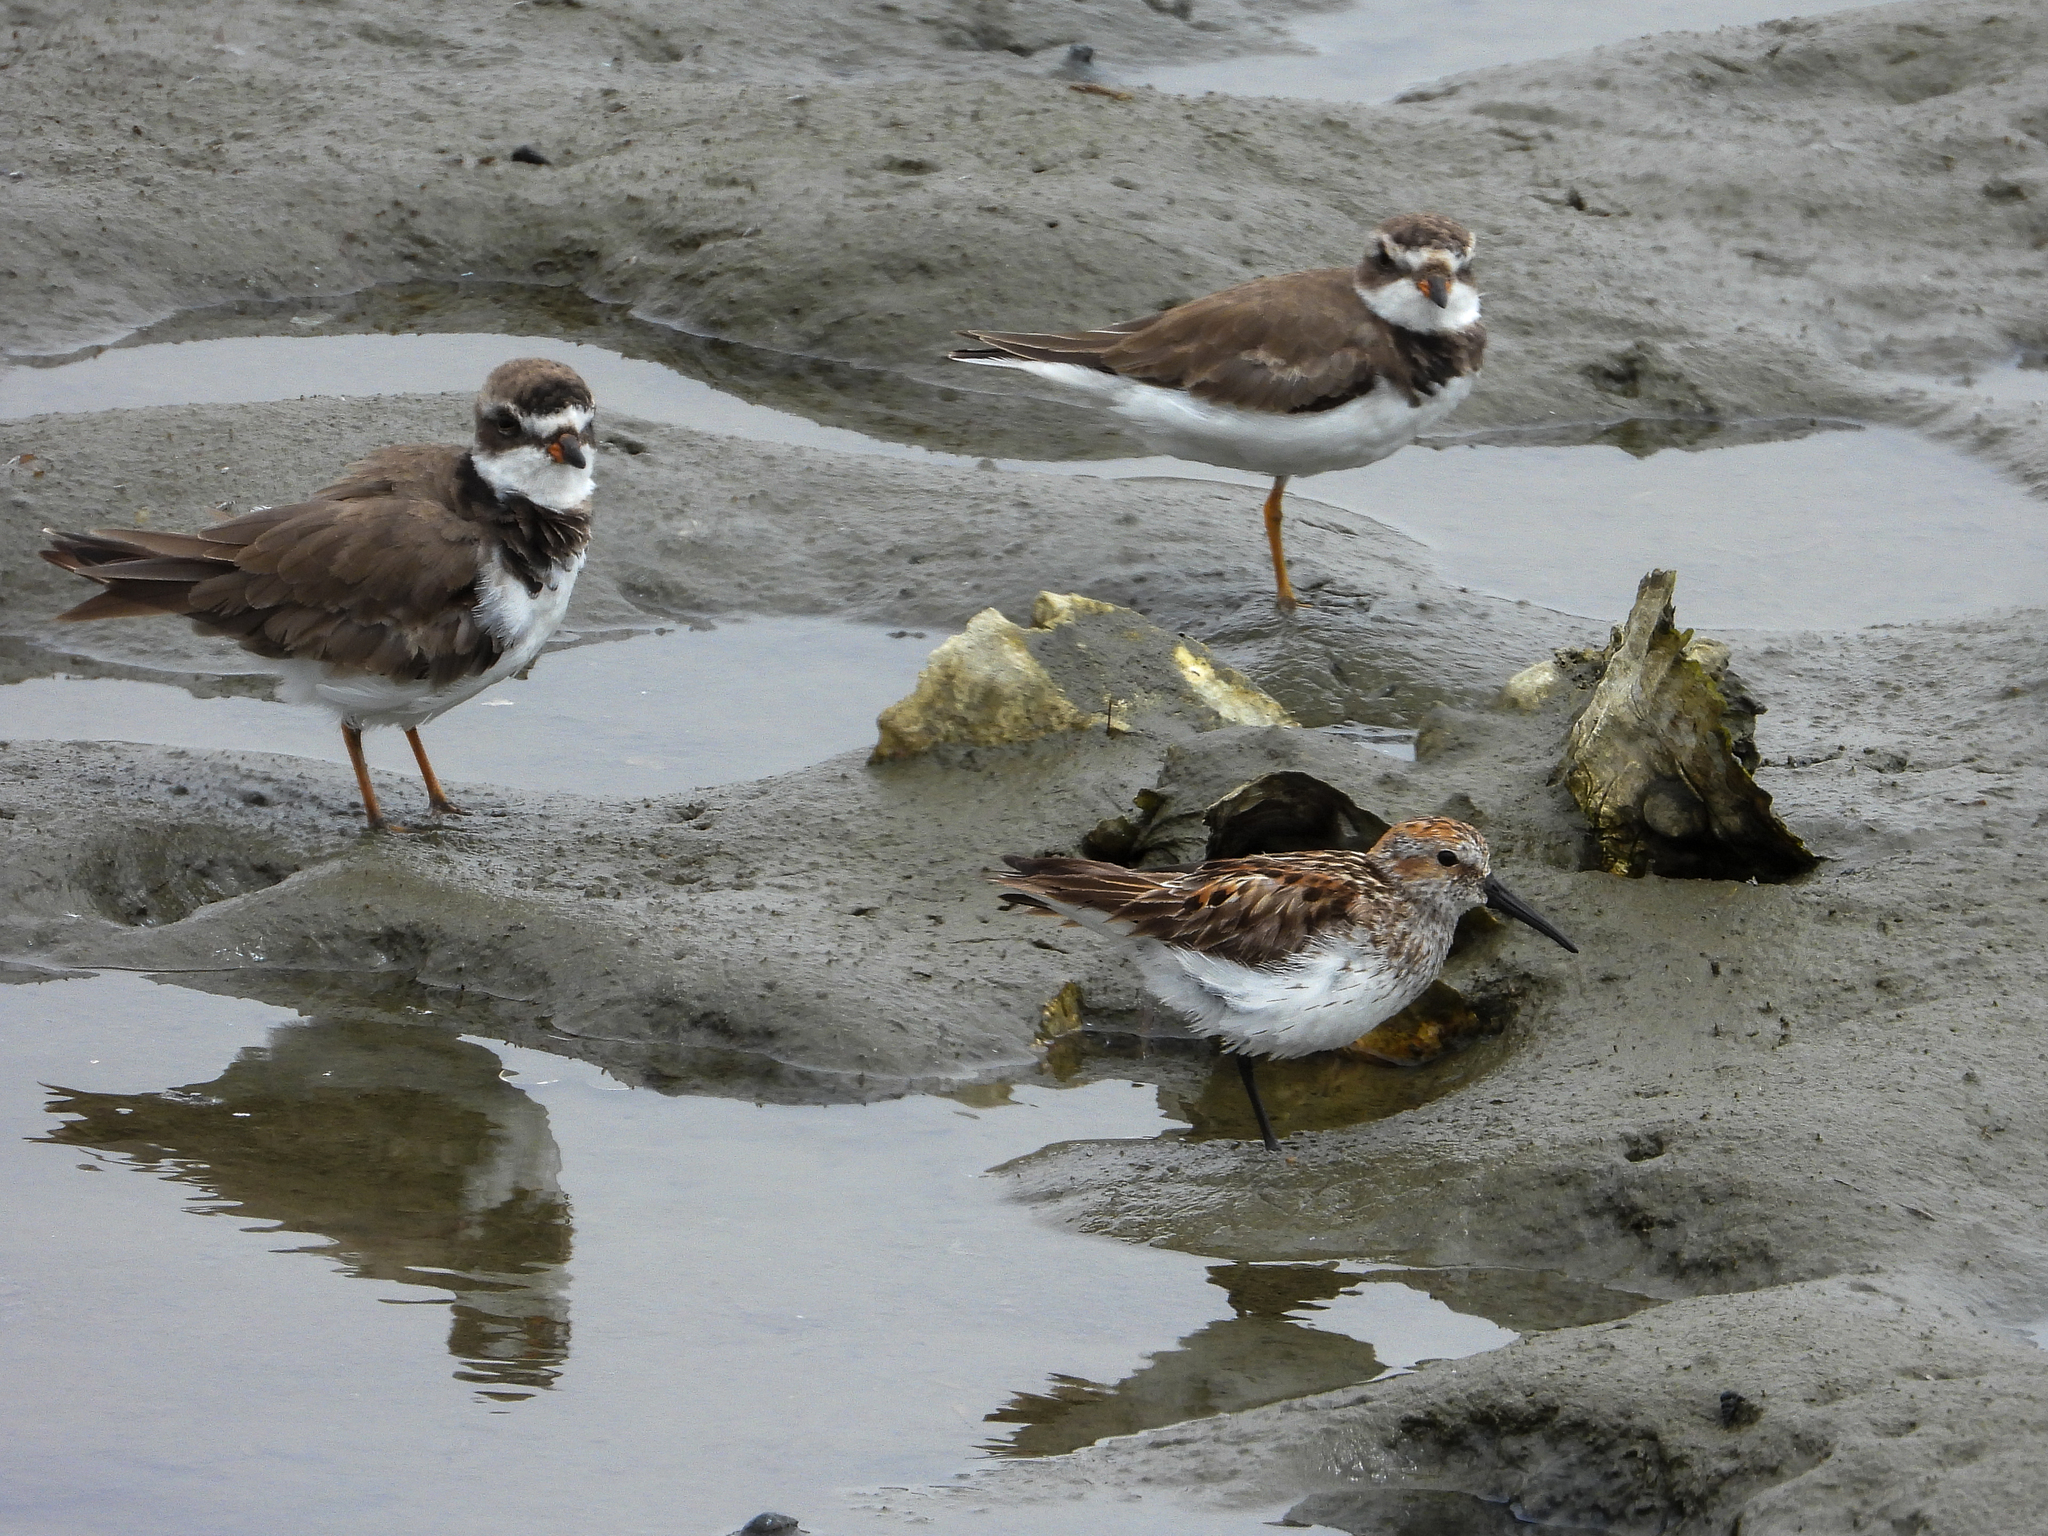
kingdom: Animalia
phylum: Chordata
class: Aves
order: Charadriiformes
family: Charadriidae
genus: Charadrius
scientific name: Charadrius semipalmatus
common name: Semipalmated plover
